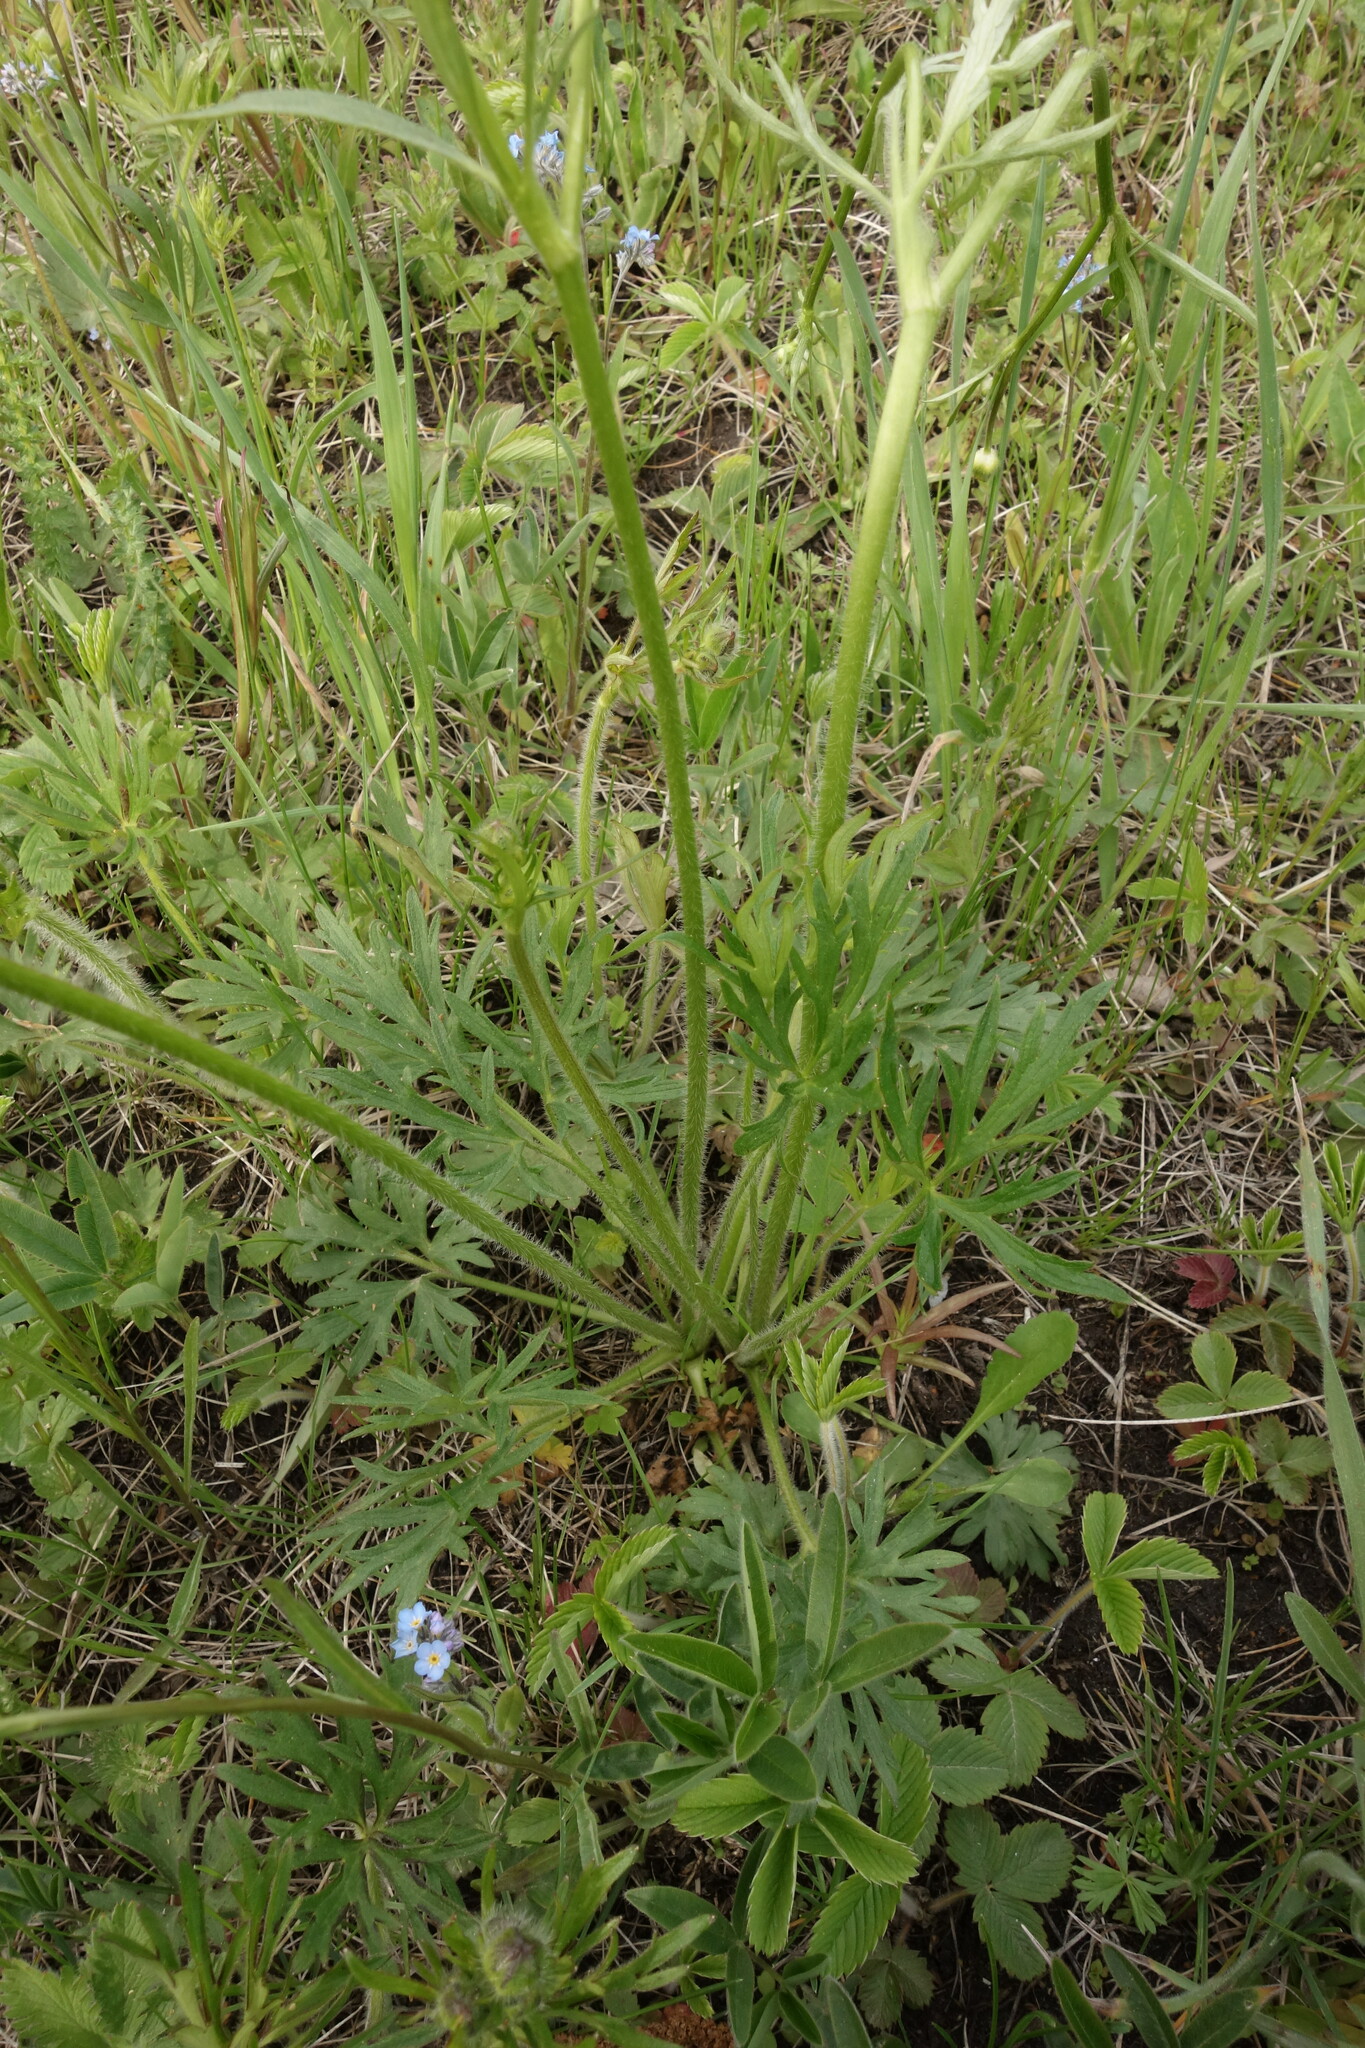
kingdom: Plantae
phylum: Tracheophyta
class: Magnoliopsida
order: Ranunculales
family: Ranunculaceae
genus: Ranunculus
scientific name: Ranunculus polyanthemos
